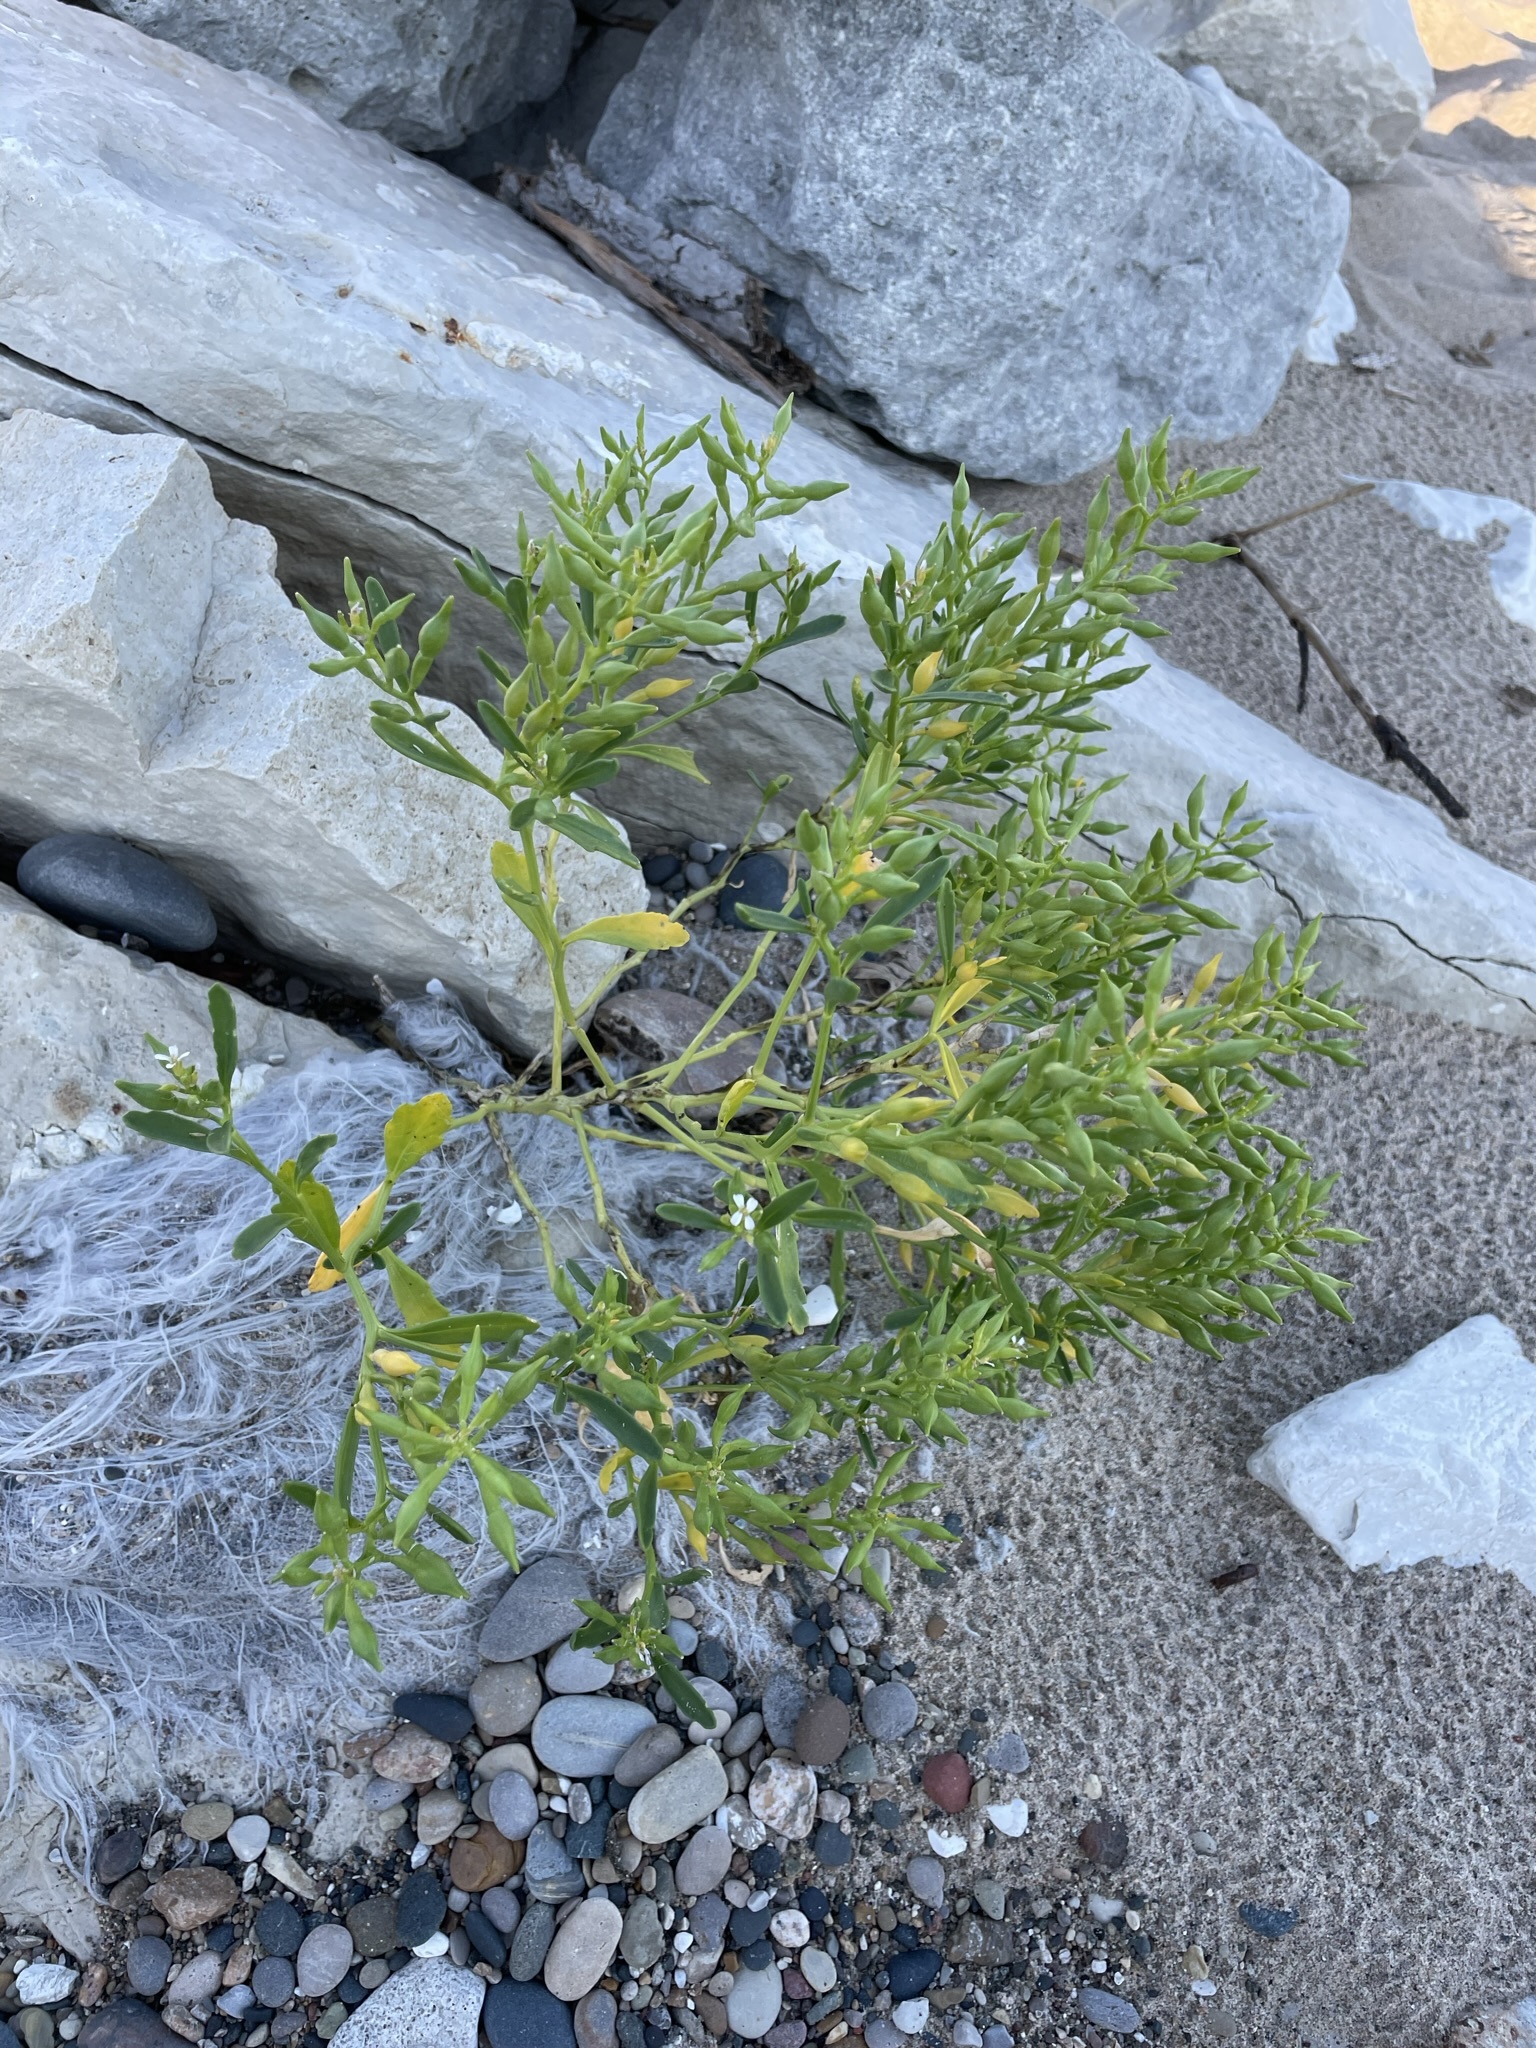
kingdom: Plantae
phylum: Tracheophyta
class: Magnoliopsida
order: Brassicales
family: Brassicaceae
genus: Cakile
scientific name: Cakile edentula
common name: American sea rocket
